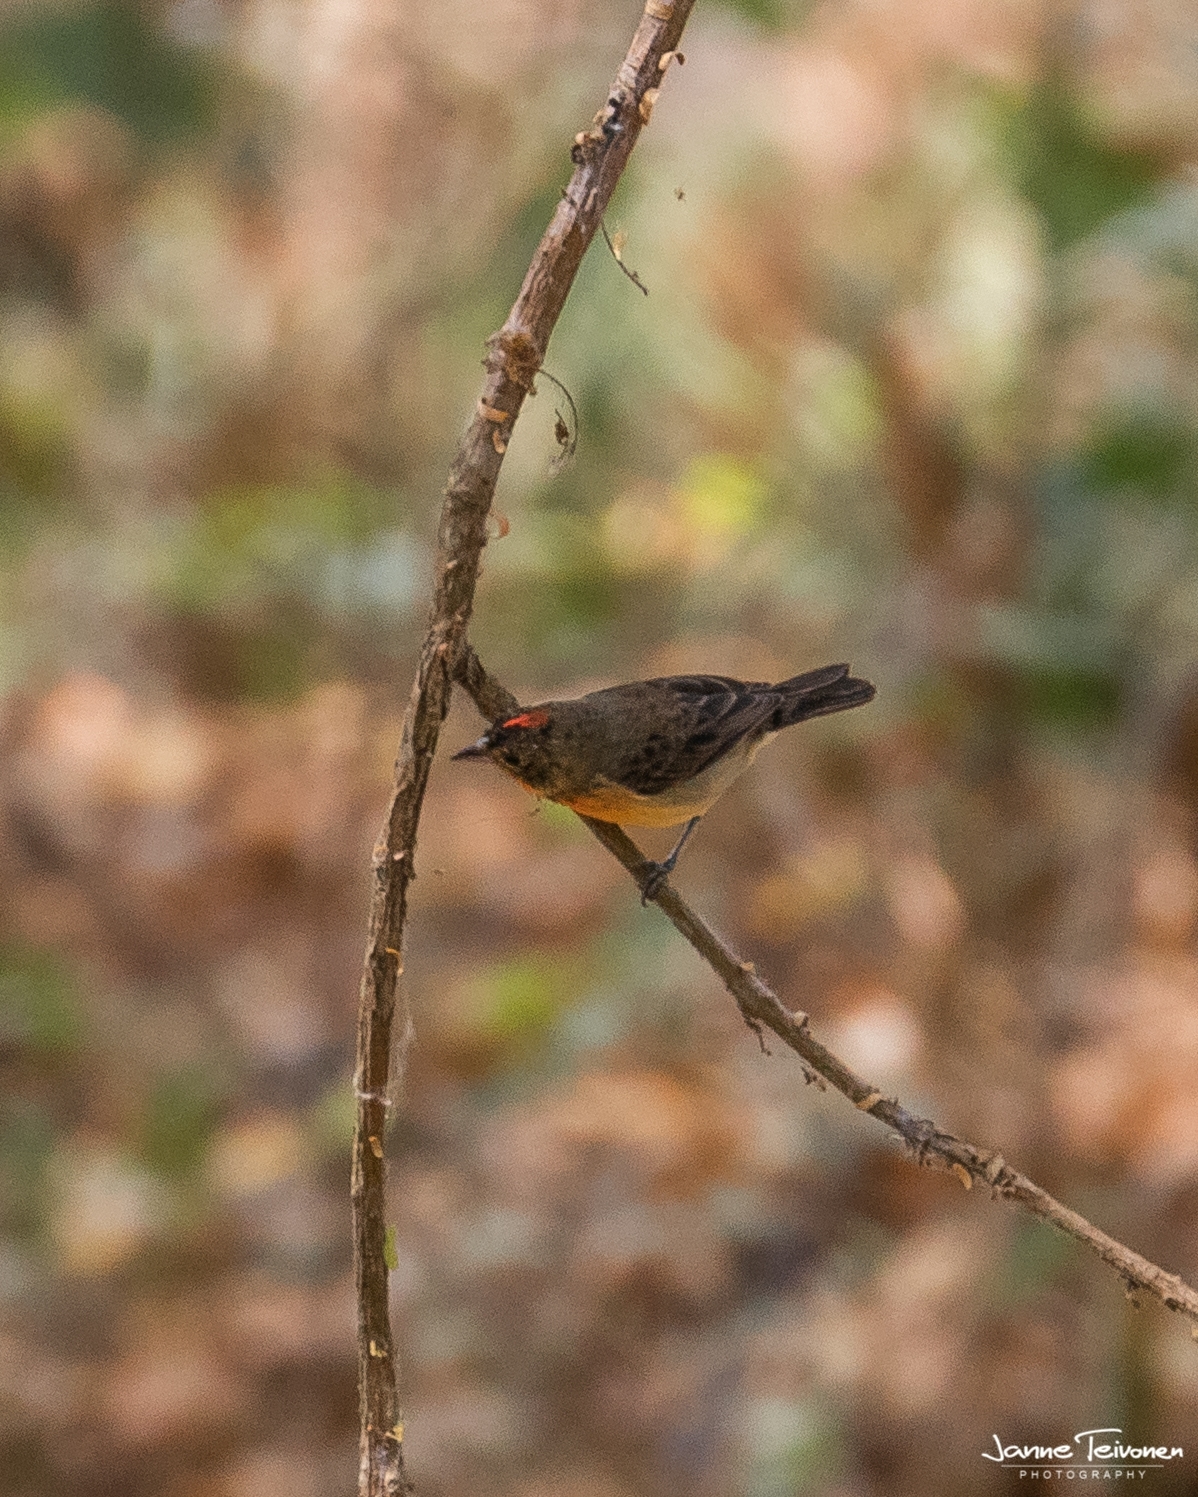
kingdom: Animalia
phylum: Chordata
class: Aves
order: Passeriformes
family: Thraupidae
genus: Rhodospingus
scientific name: Rhodospingus cruentus
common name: Crimson-breasted finch
